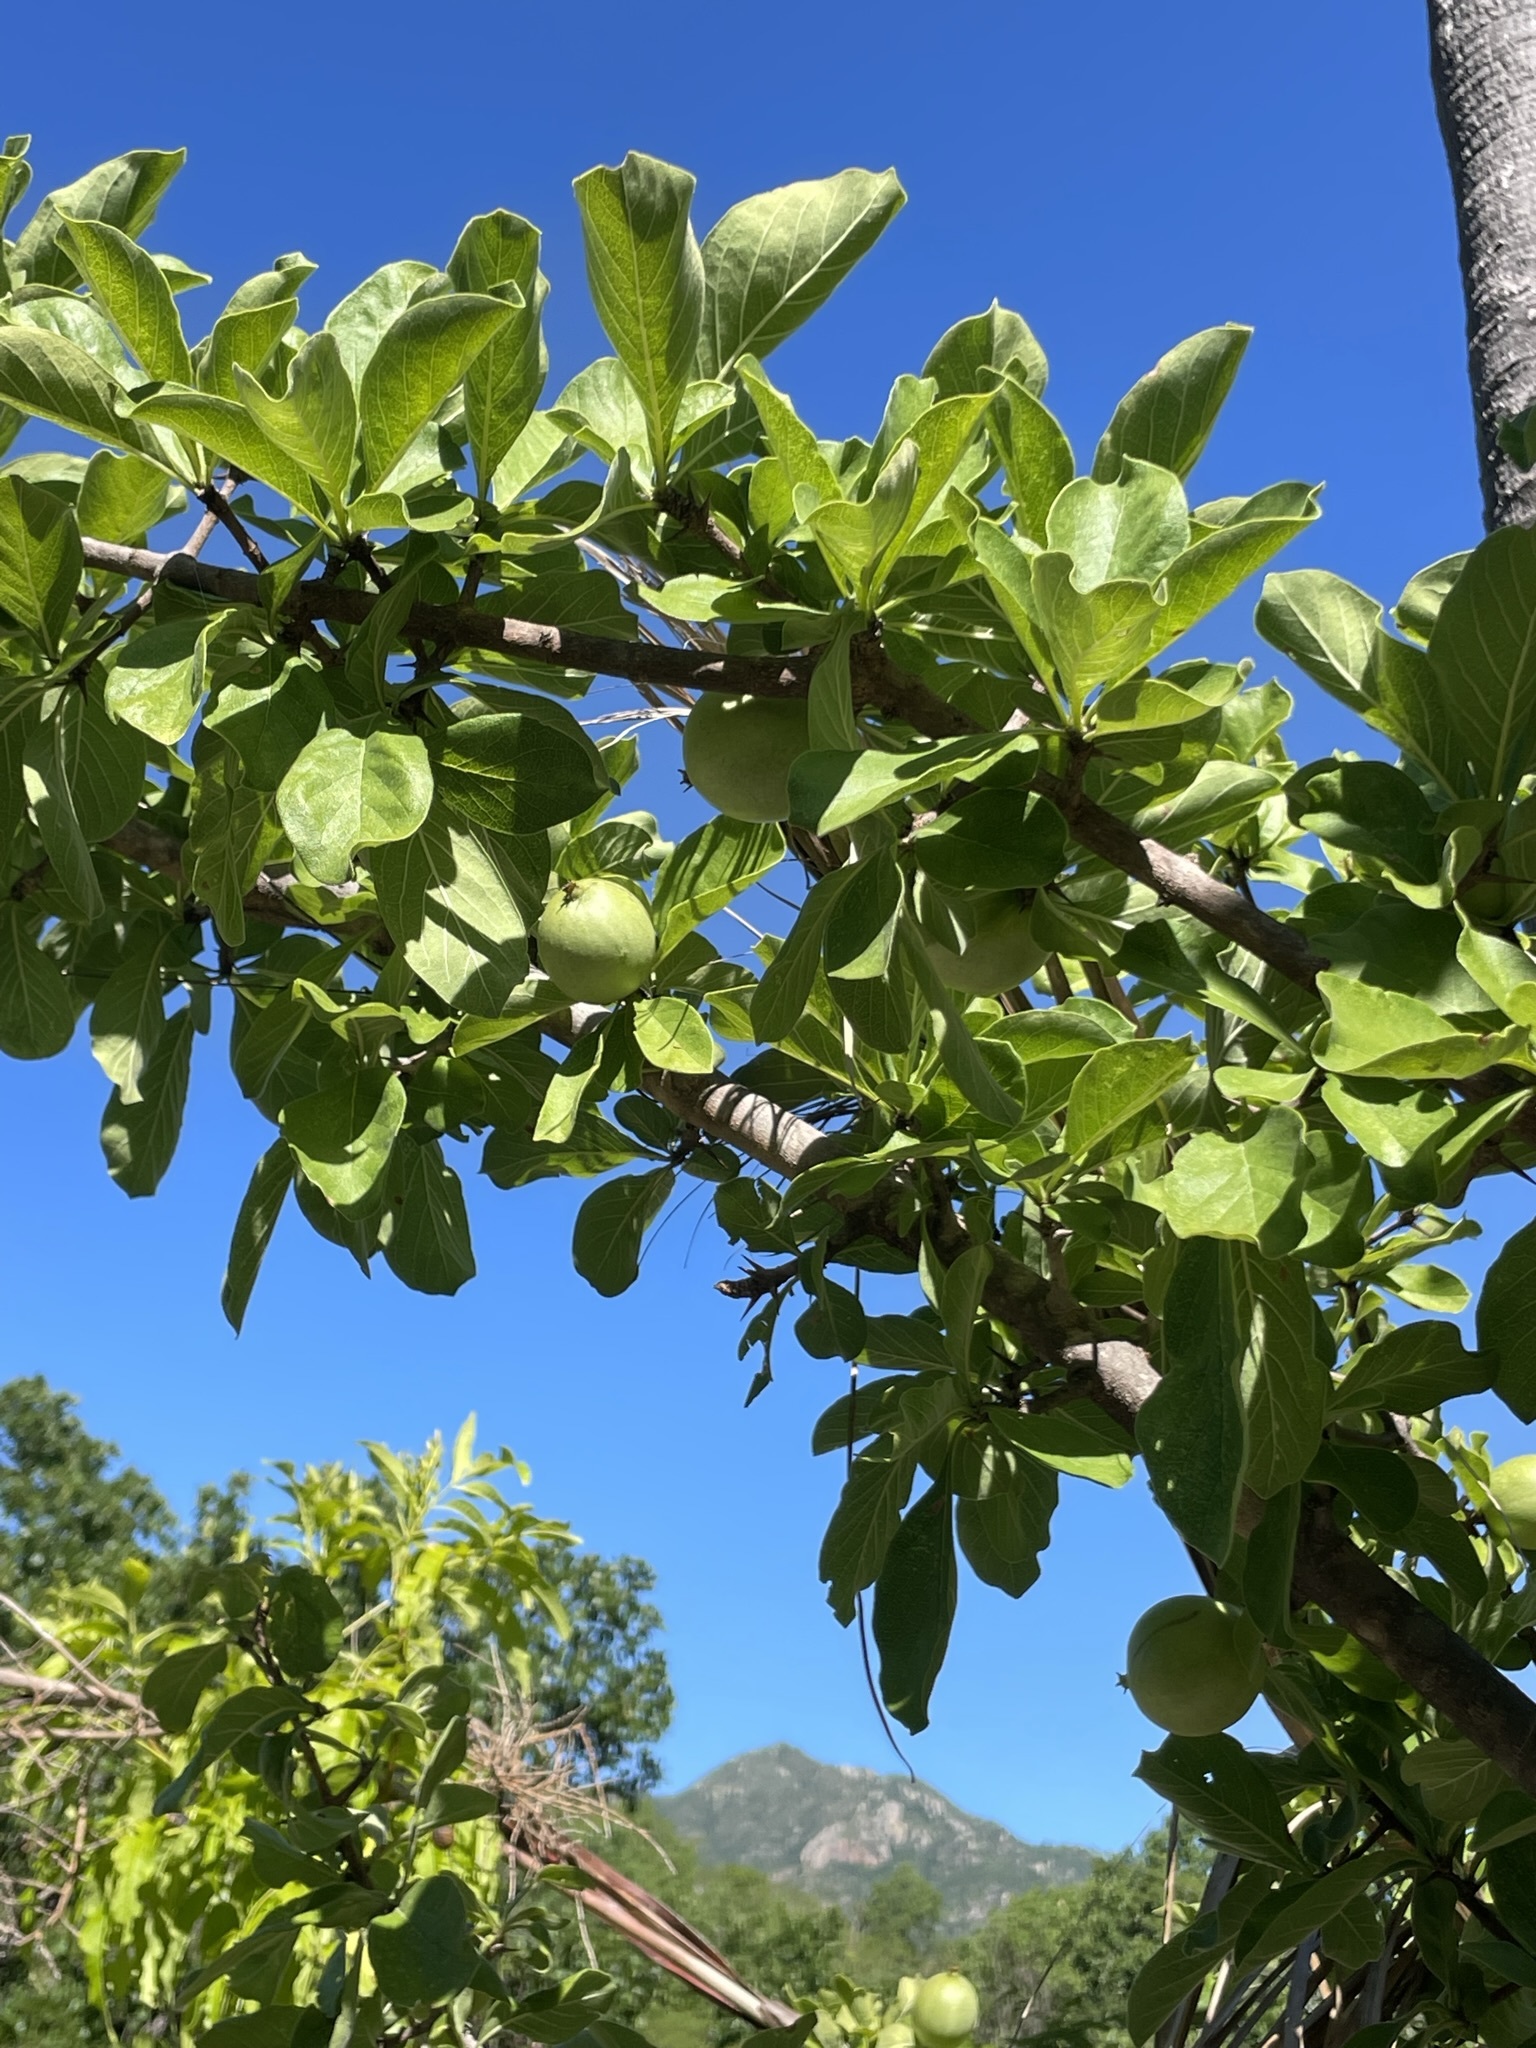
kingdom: Plantae
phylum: Tracheophyta
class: Magnoliopsida
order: Gentianales
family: Rubiaceae
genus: Randia
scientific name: Randia capitata
